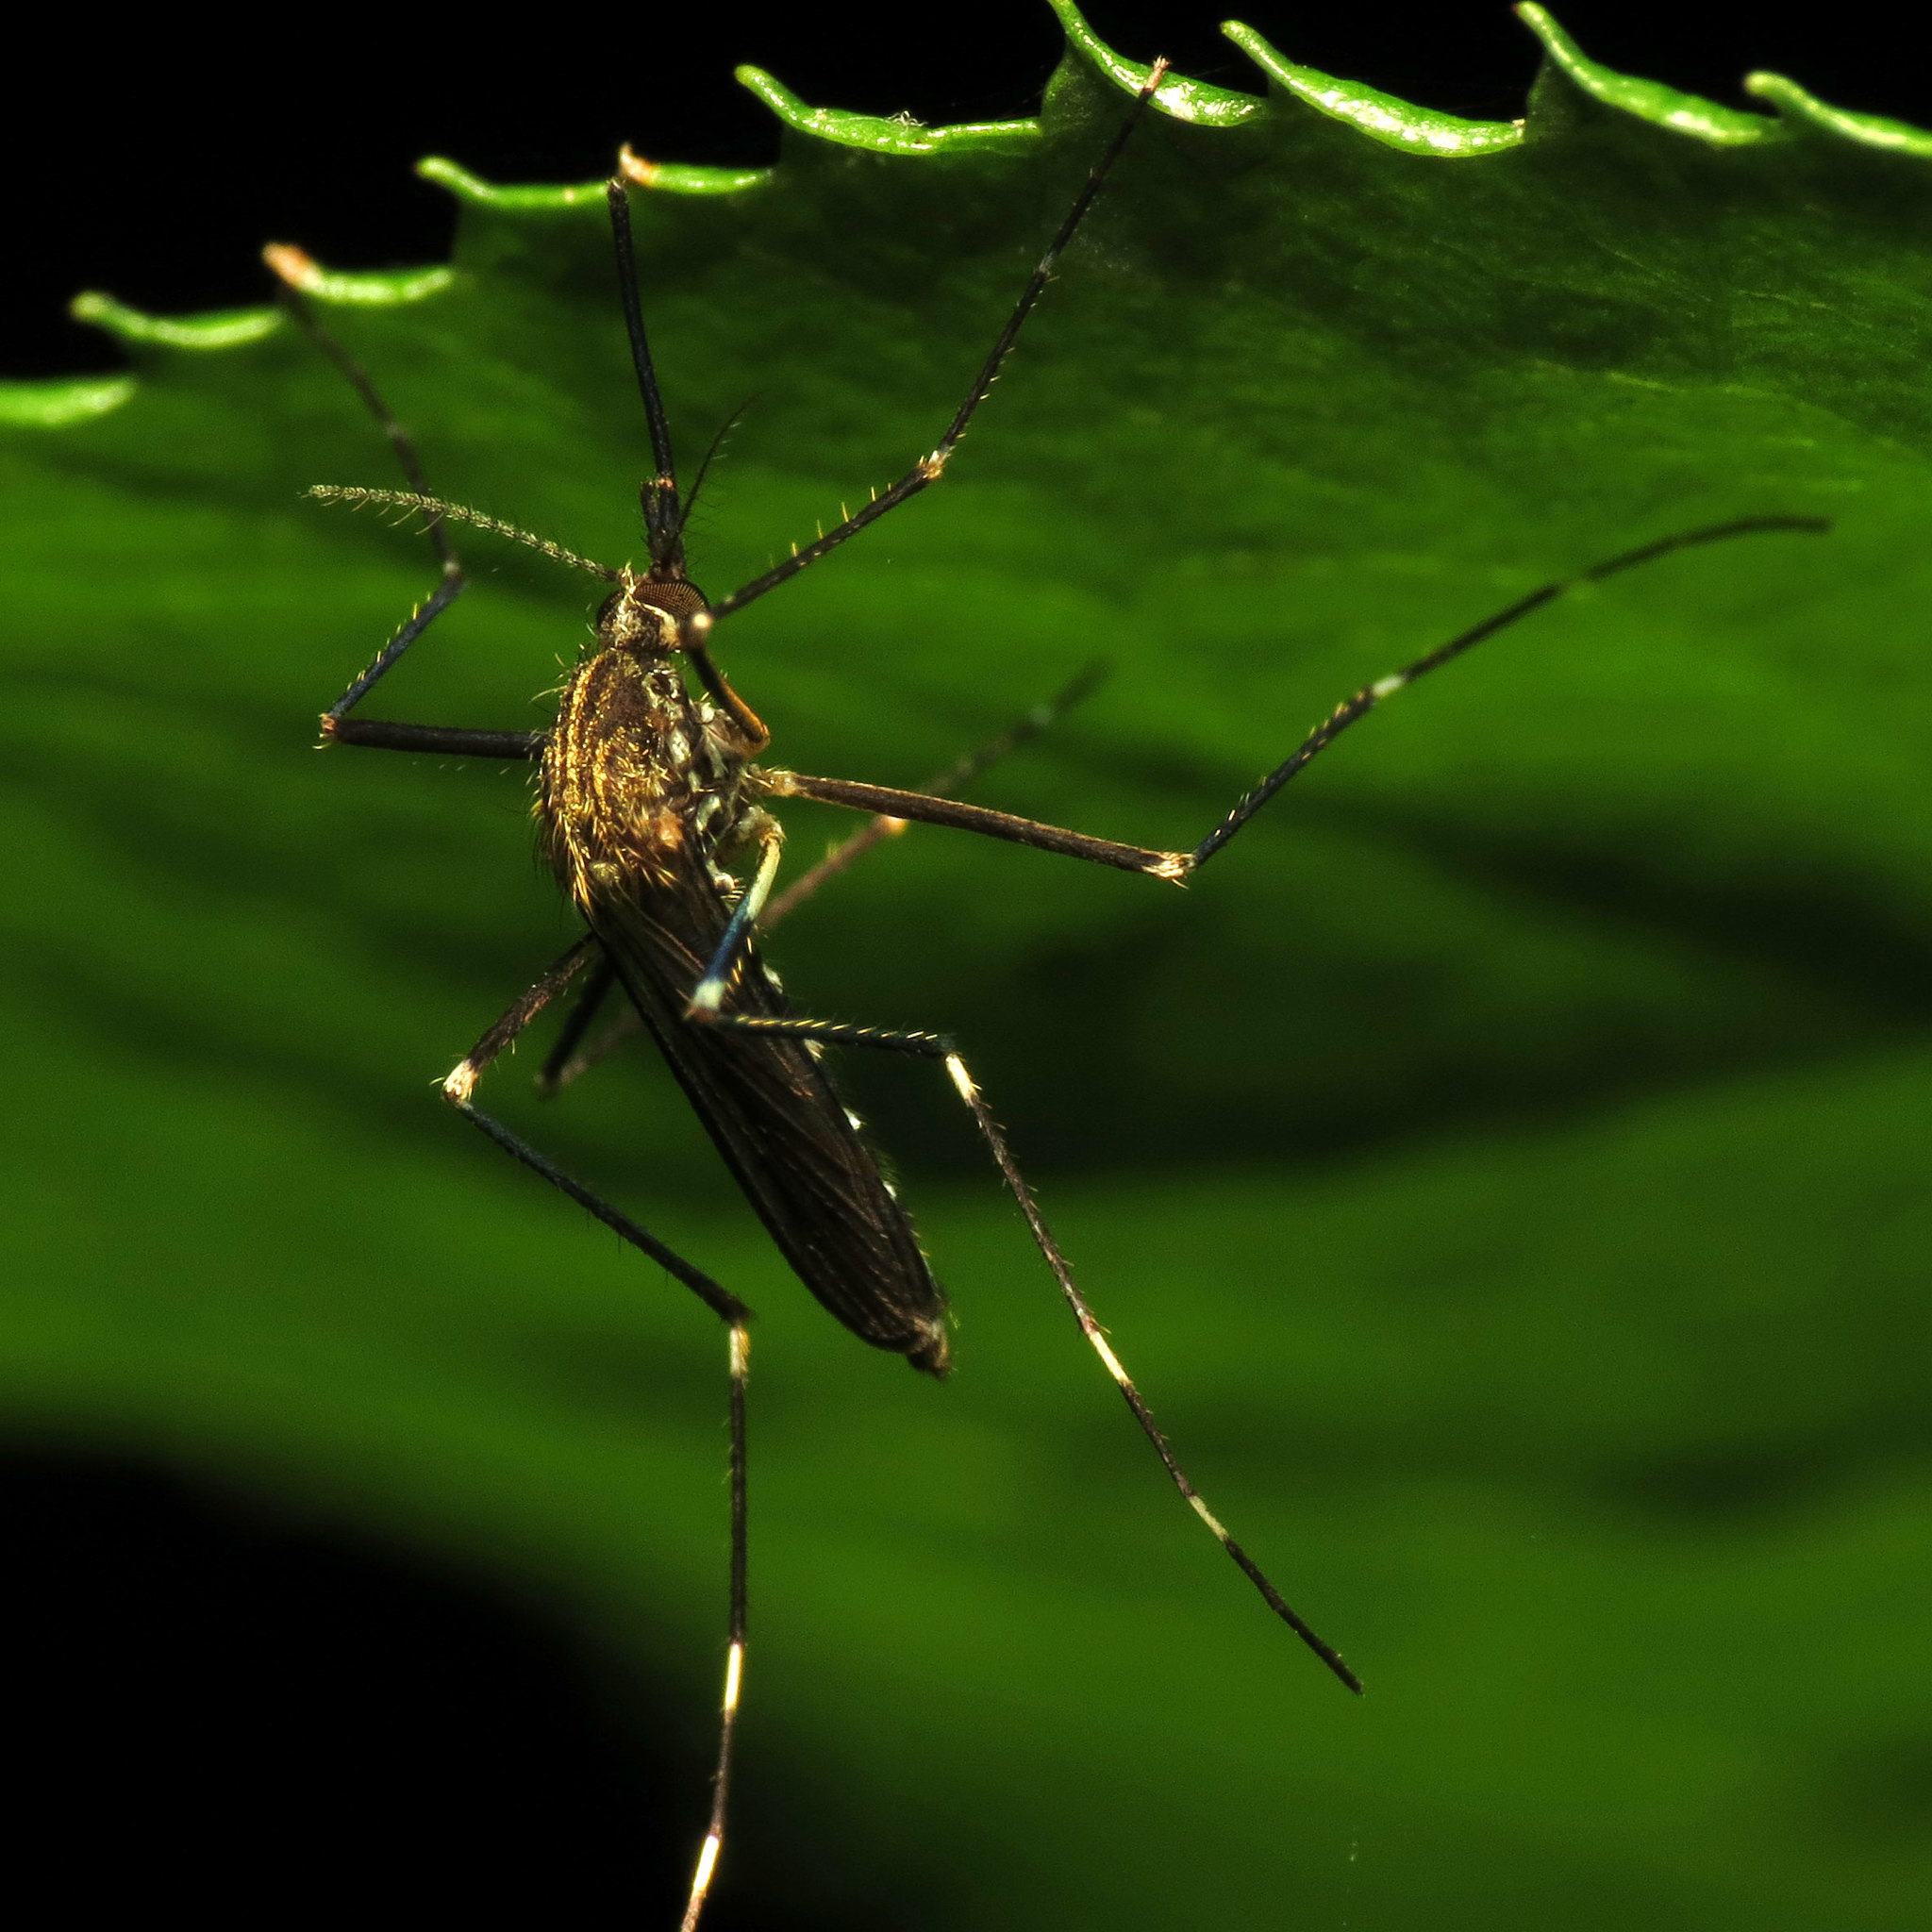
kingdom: Animalia
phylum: Arthropoda
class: Insecta
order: Diptera
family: Culicidae
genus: Aedes
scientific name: Aedes japonicus
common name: Asian bush mosquito
